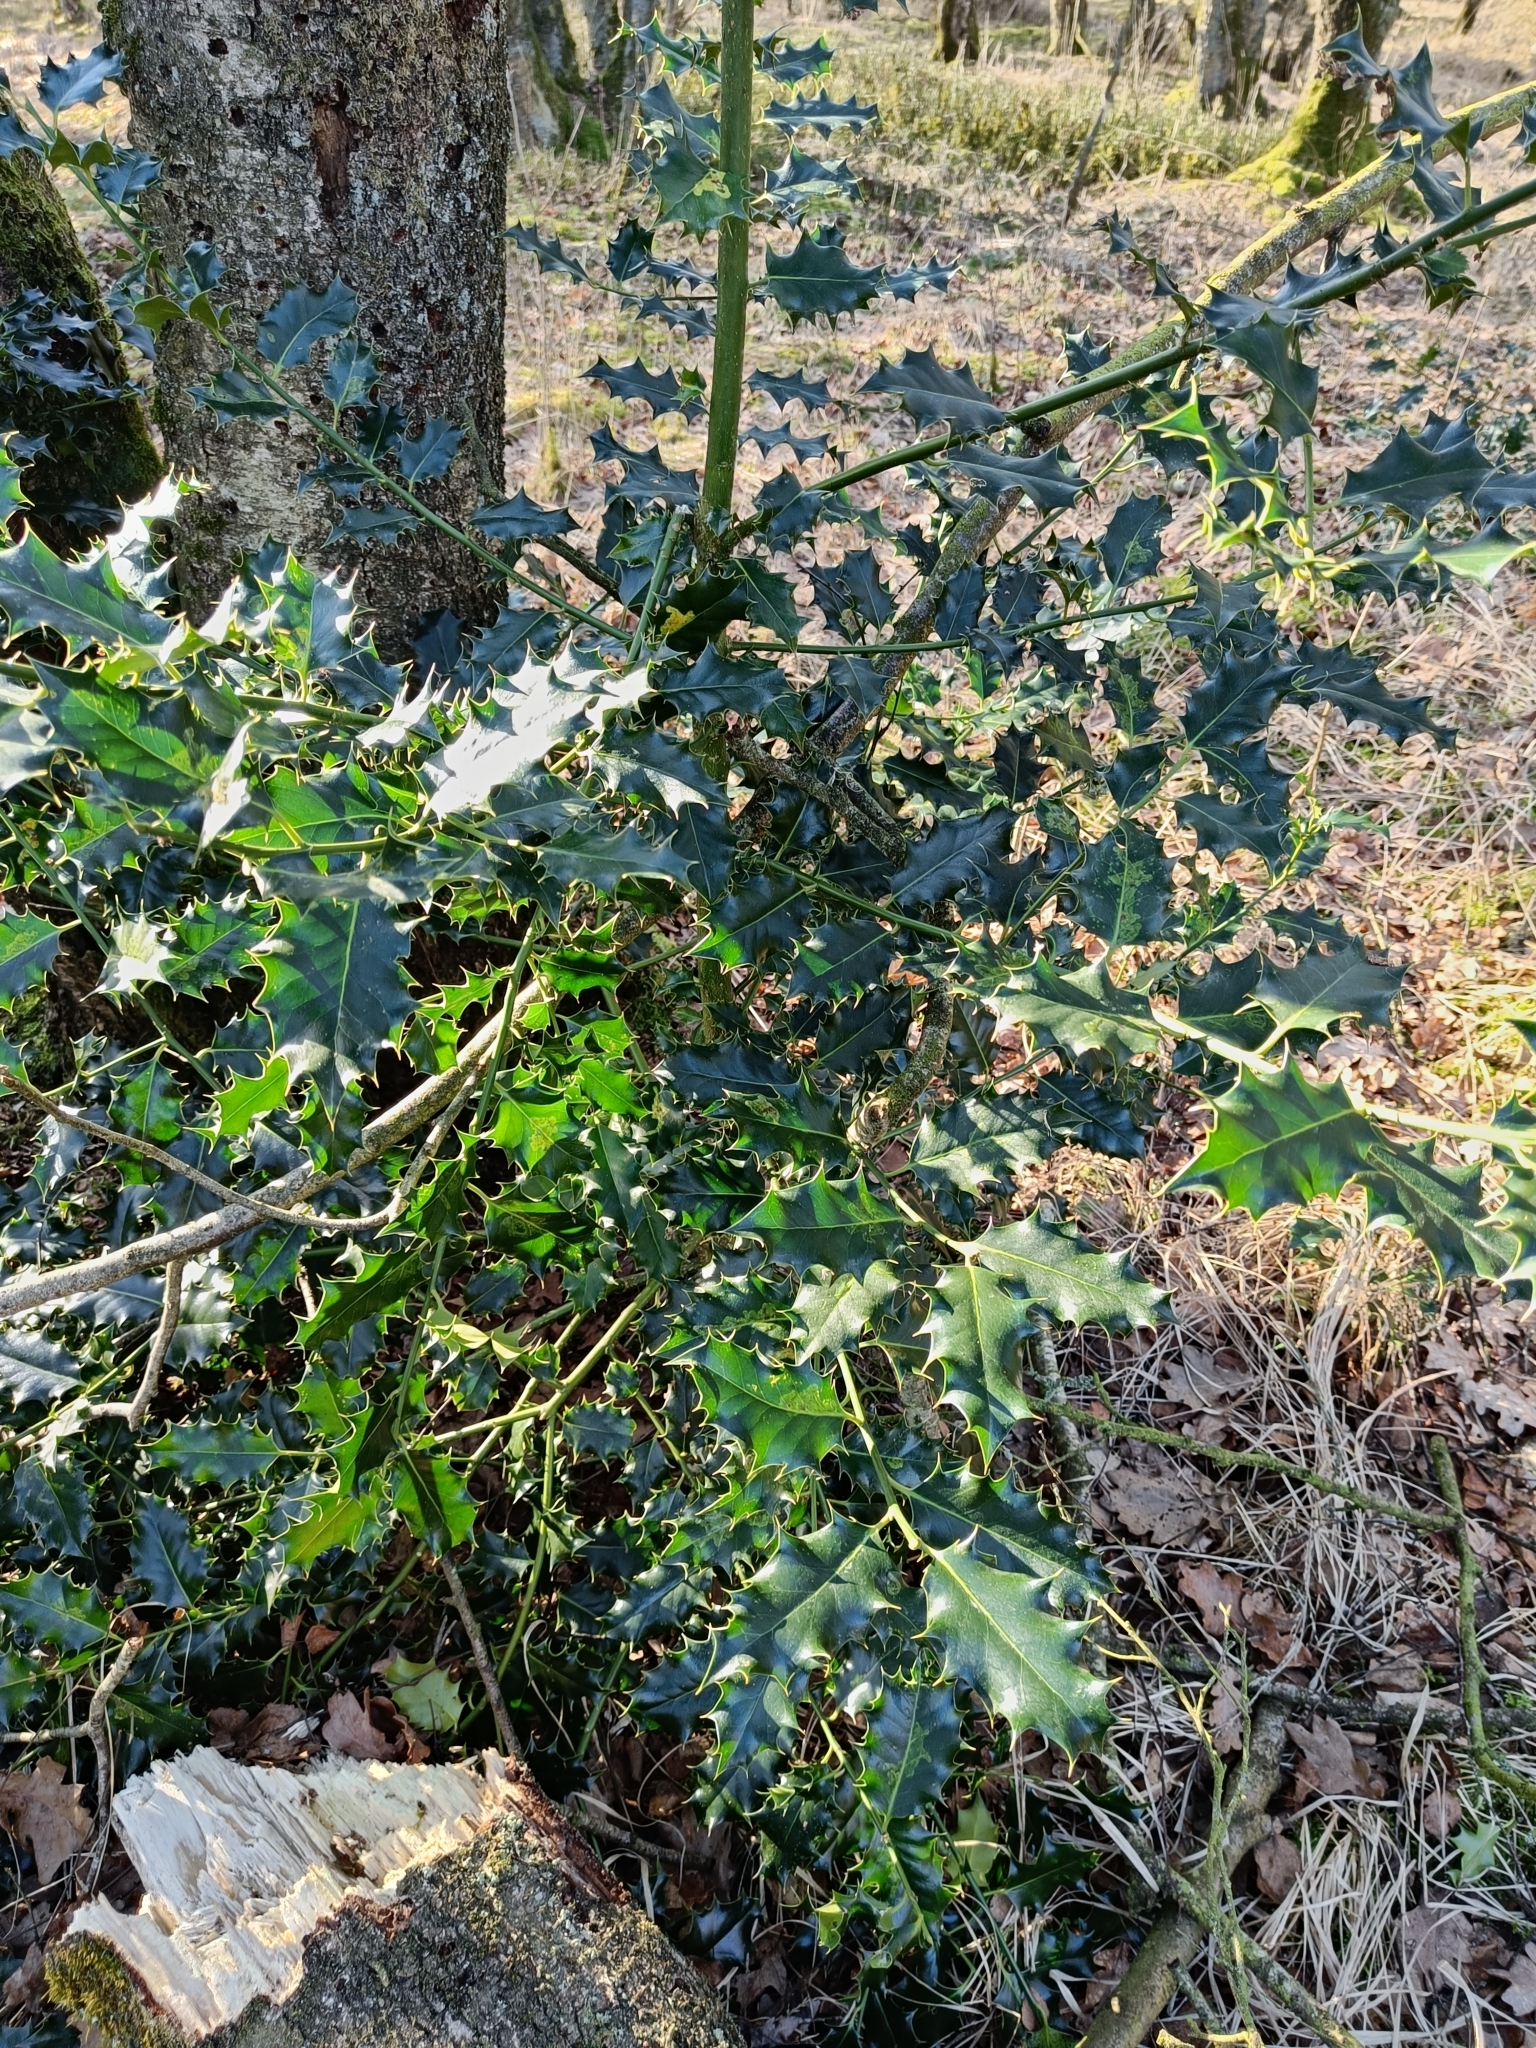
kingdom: Plantae
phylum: Tracheophyta
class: Magnoliopsida
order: Aquifoliales
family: Aquifoliaceae
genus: Ilex
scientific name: Ilex aquifolium
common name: English holly
